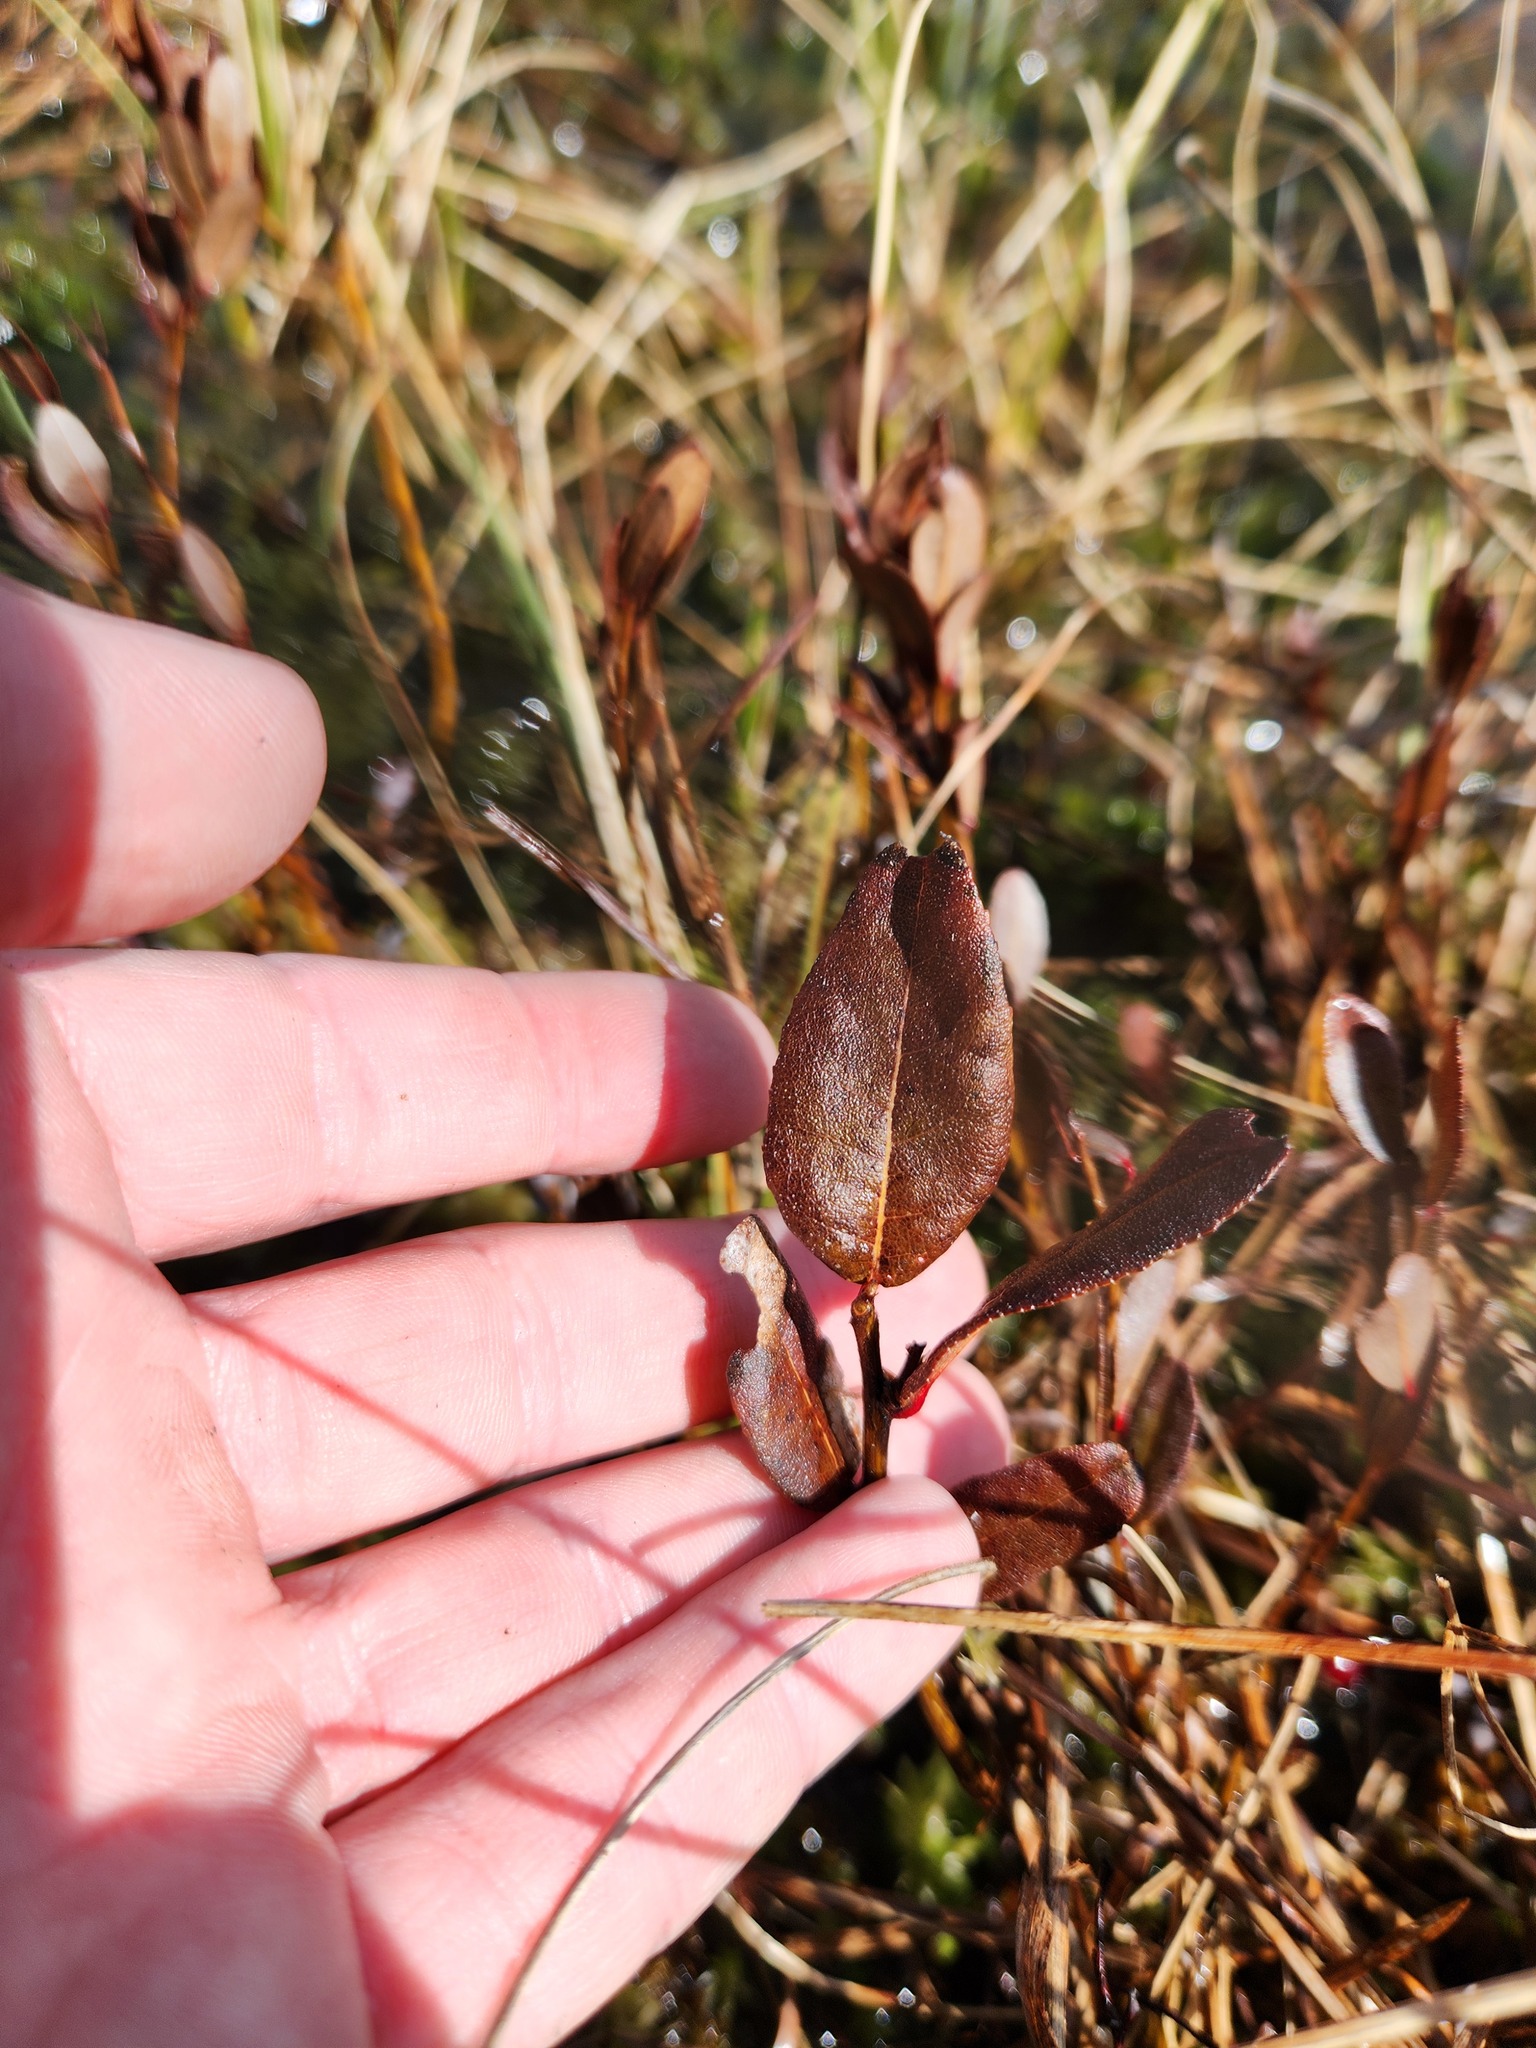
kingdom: Plantae
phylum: Tracheophyta
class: Magnoliopsida
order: Ericales
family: Ericaceae
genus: Chamaedaphne
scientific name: Chamaedaphne calyculata
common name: Leatherleaf
